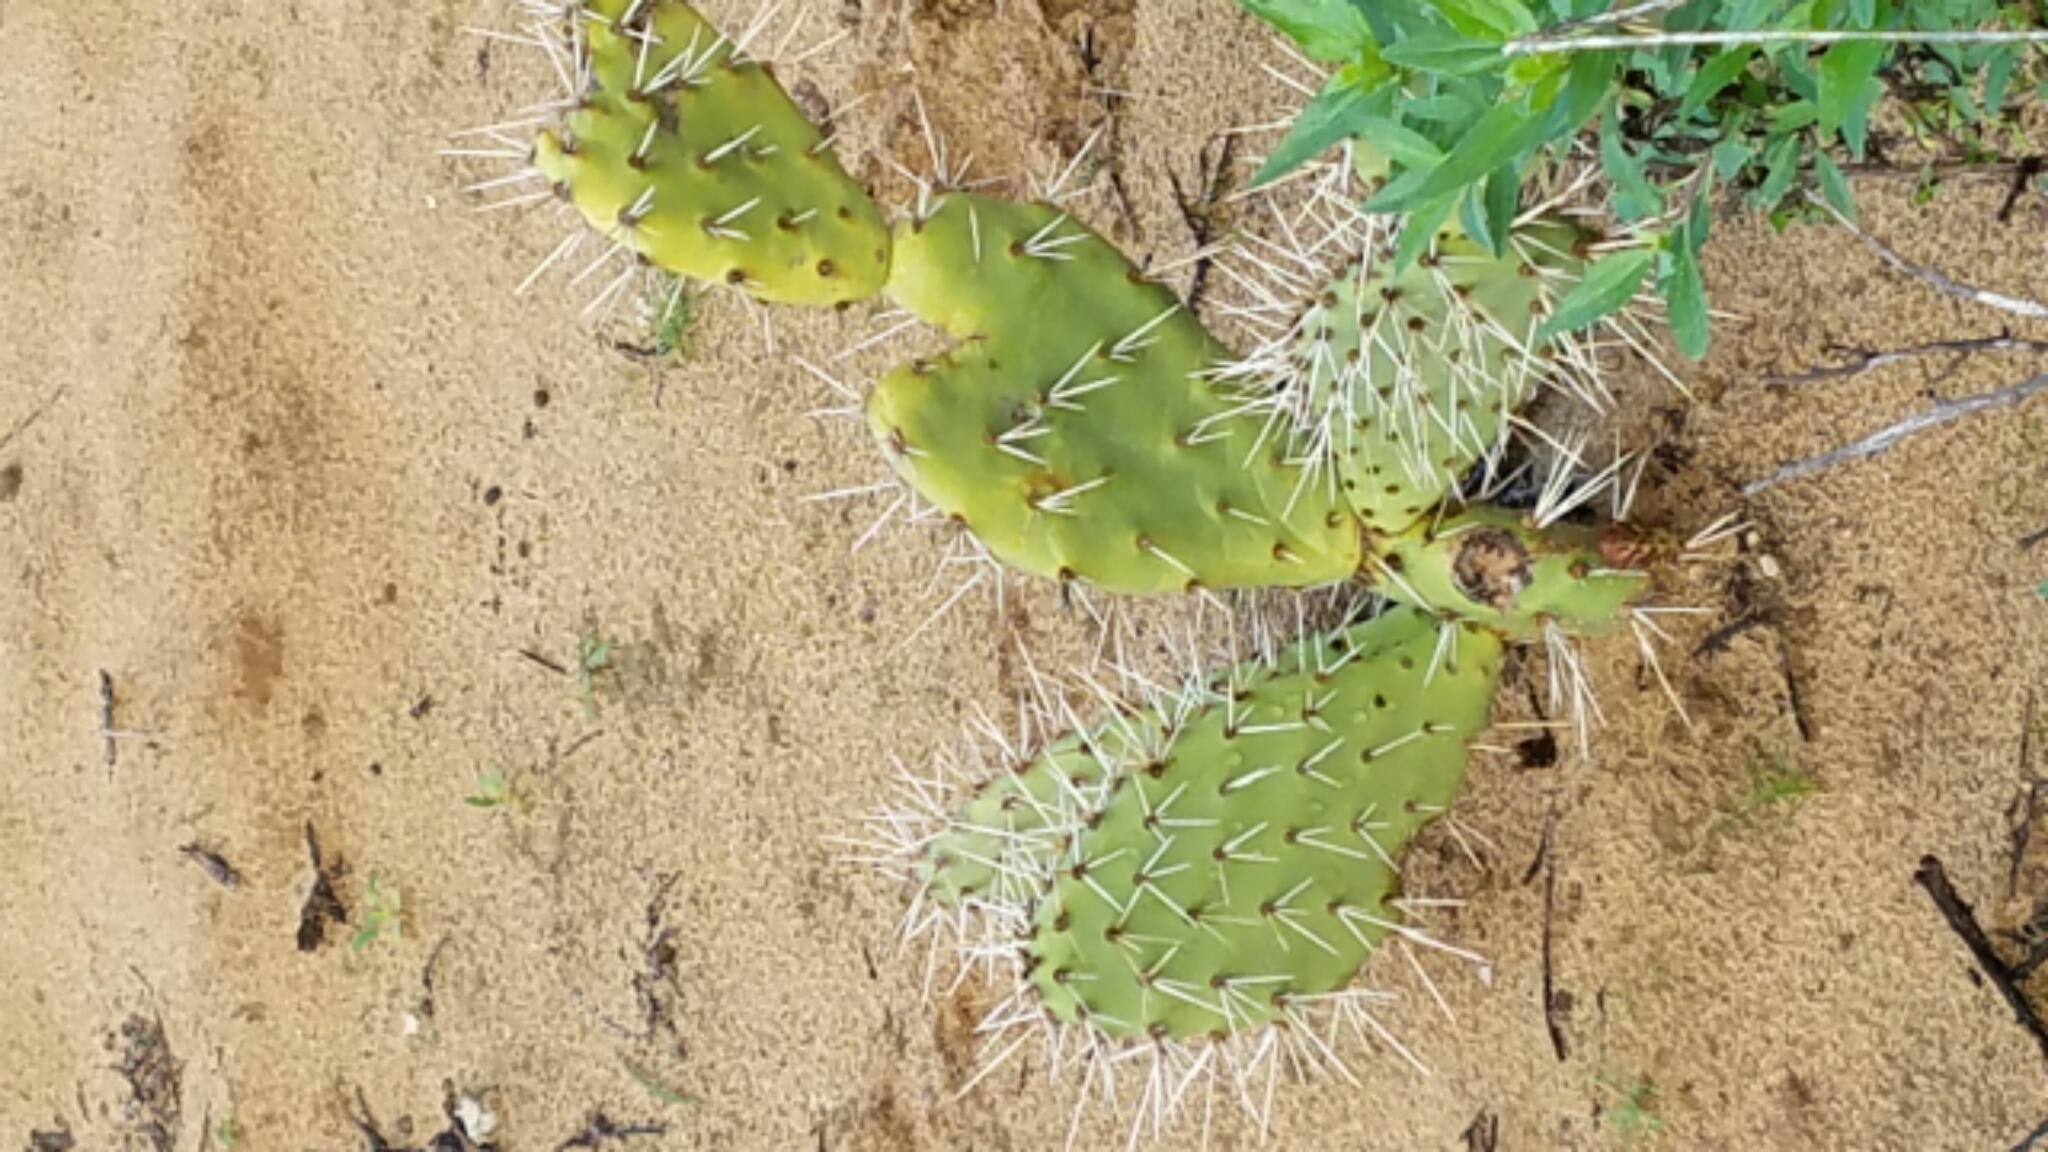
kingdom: Plantae
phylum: Tracheophyta
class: Magnoliopsida
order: Caryophyllales
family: Cactaceae
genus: Opuntia
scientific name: Opuntia littoralis
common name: Coastal prickly-pear
